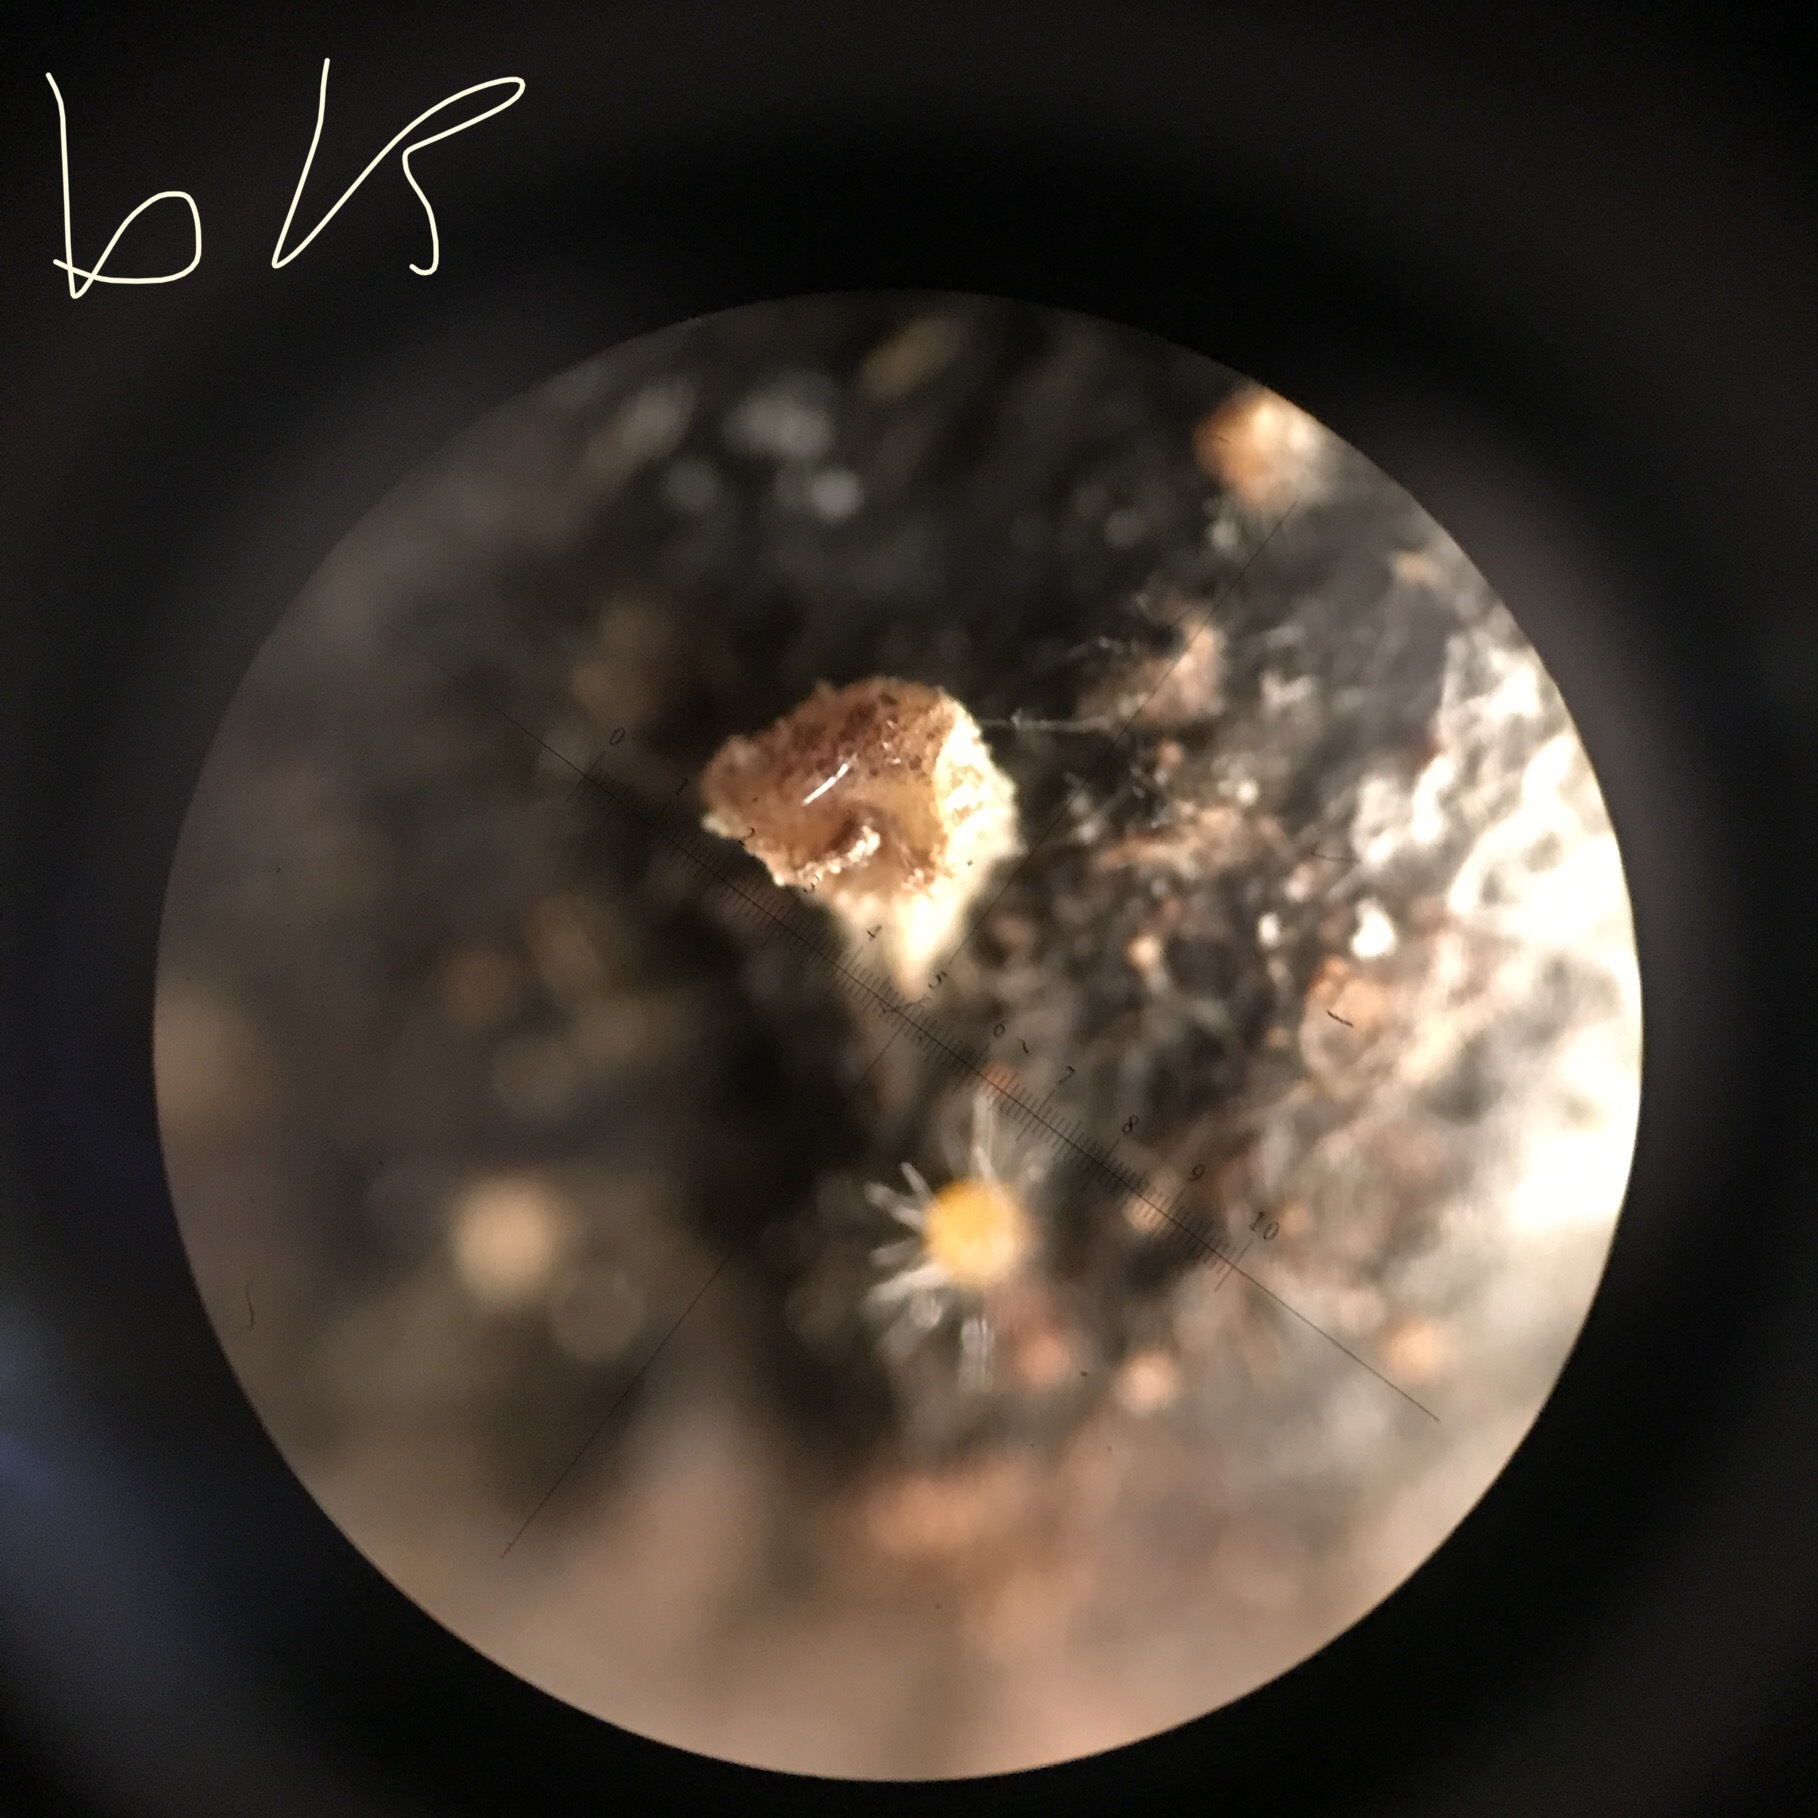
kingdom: Fungi
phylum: Ascomycota
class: Pezizomycetes
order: Pezizales
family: Ascobolaceae
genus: Ascobolus
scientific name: Ascobolus michaudii
